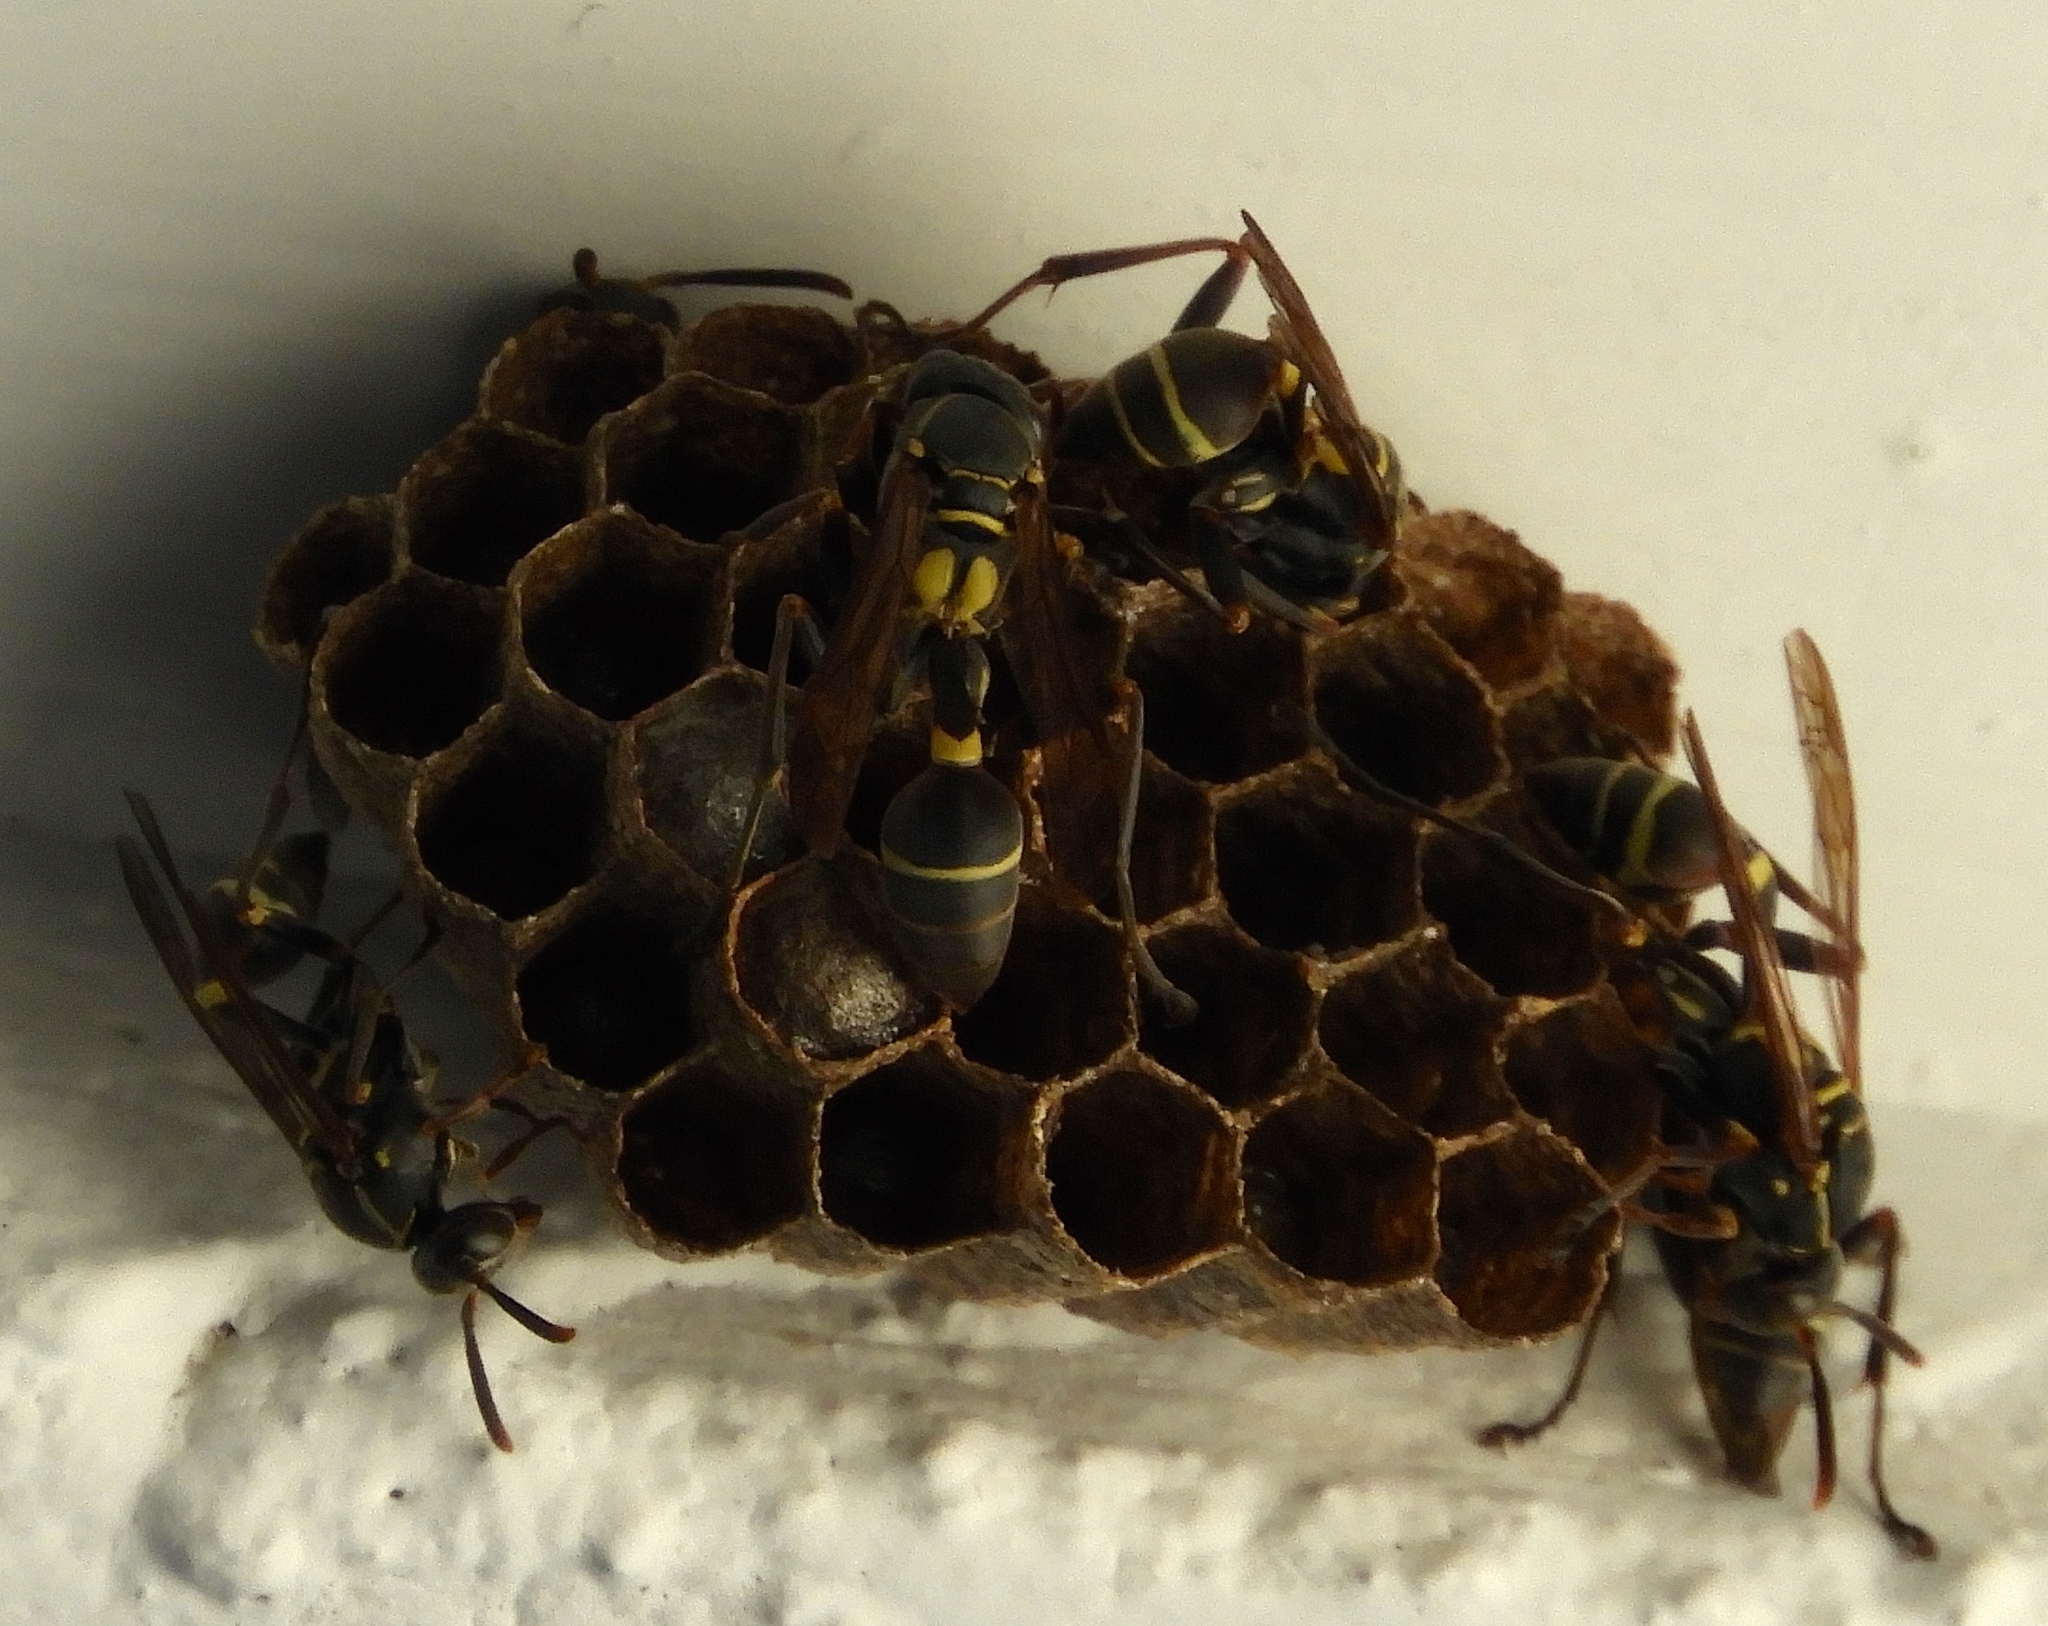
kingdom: Animalia
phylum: Arthropoda
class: Insecta
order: Hymenoptera
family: Vespidae
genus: Mischocyttarus
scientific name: Mischocyttarus
